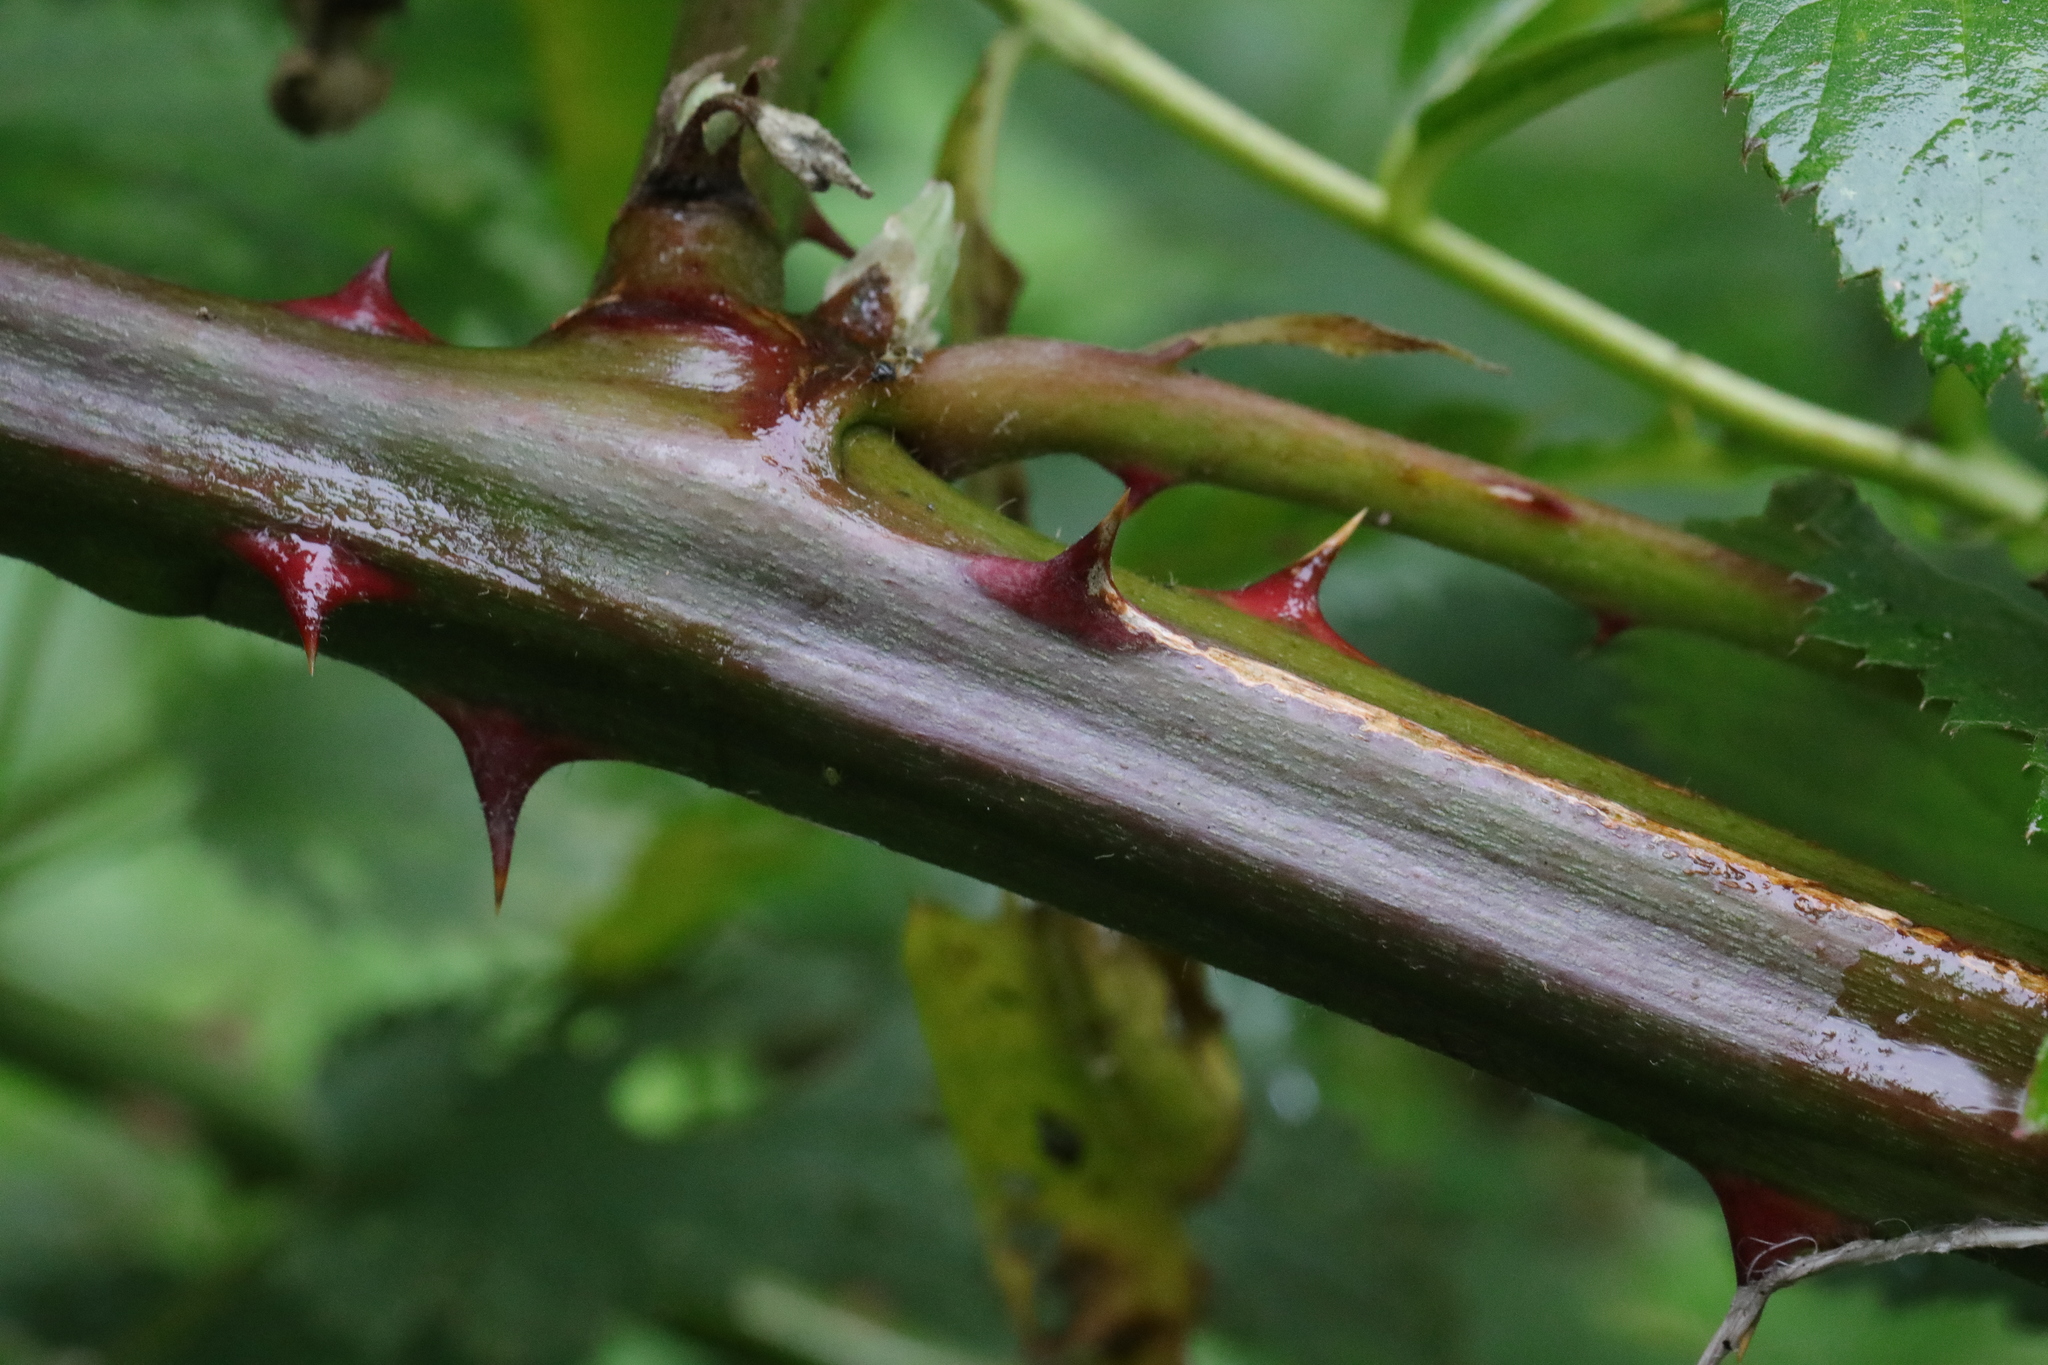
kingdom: Plantae
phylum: Tracheophyta
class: Magnoliopsida
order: Rosales
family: Rosaceae
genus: Rubus
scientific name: Rubus armeniacus
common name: Himalayan blackberry
